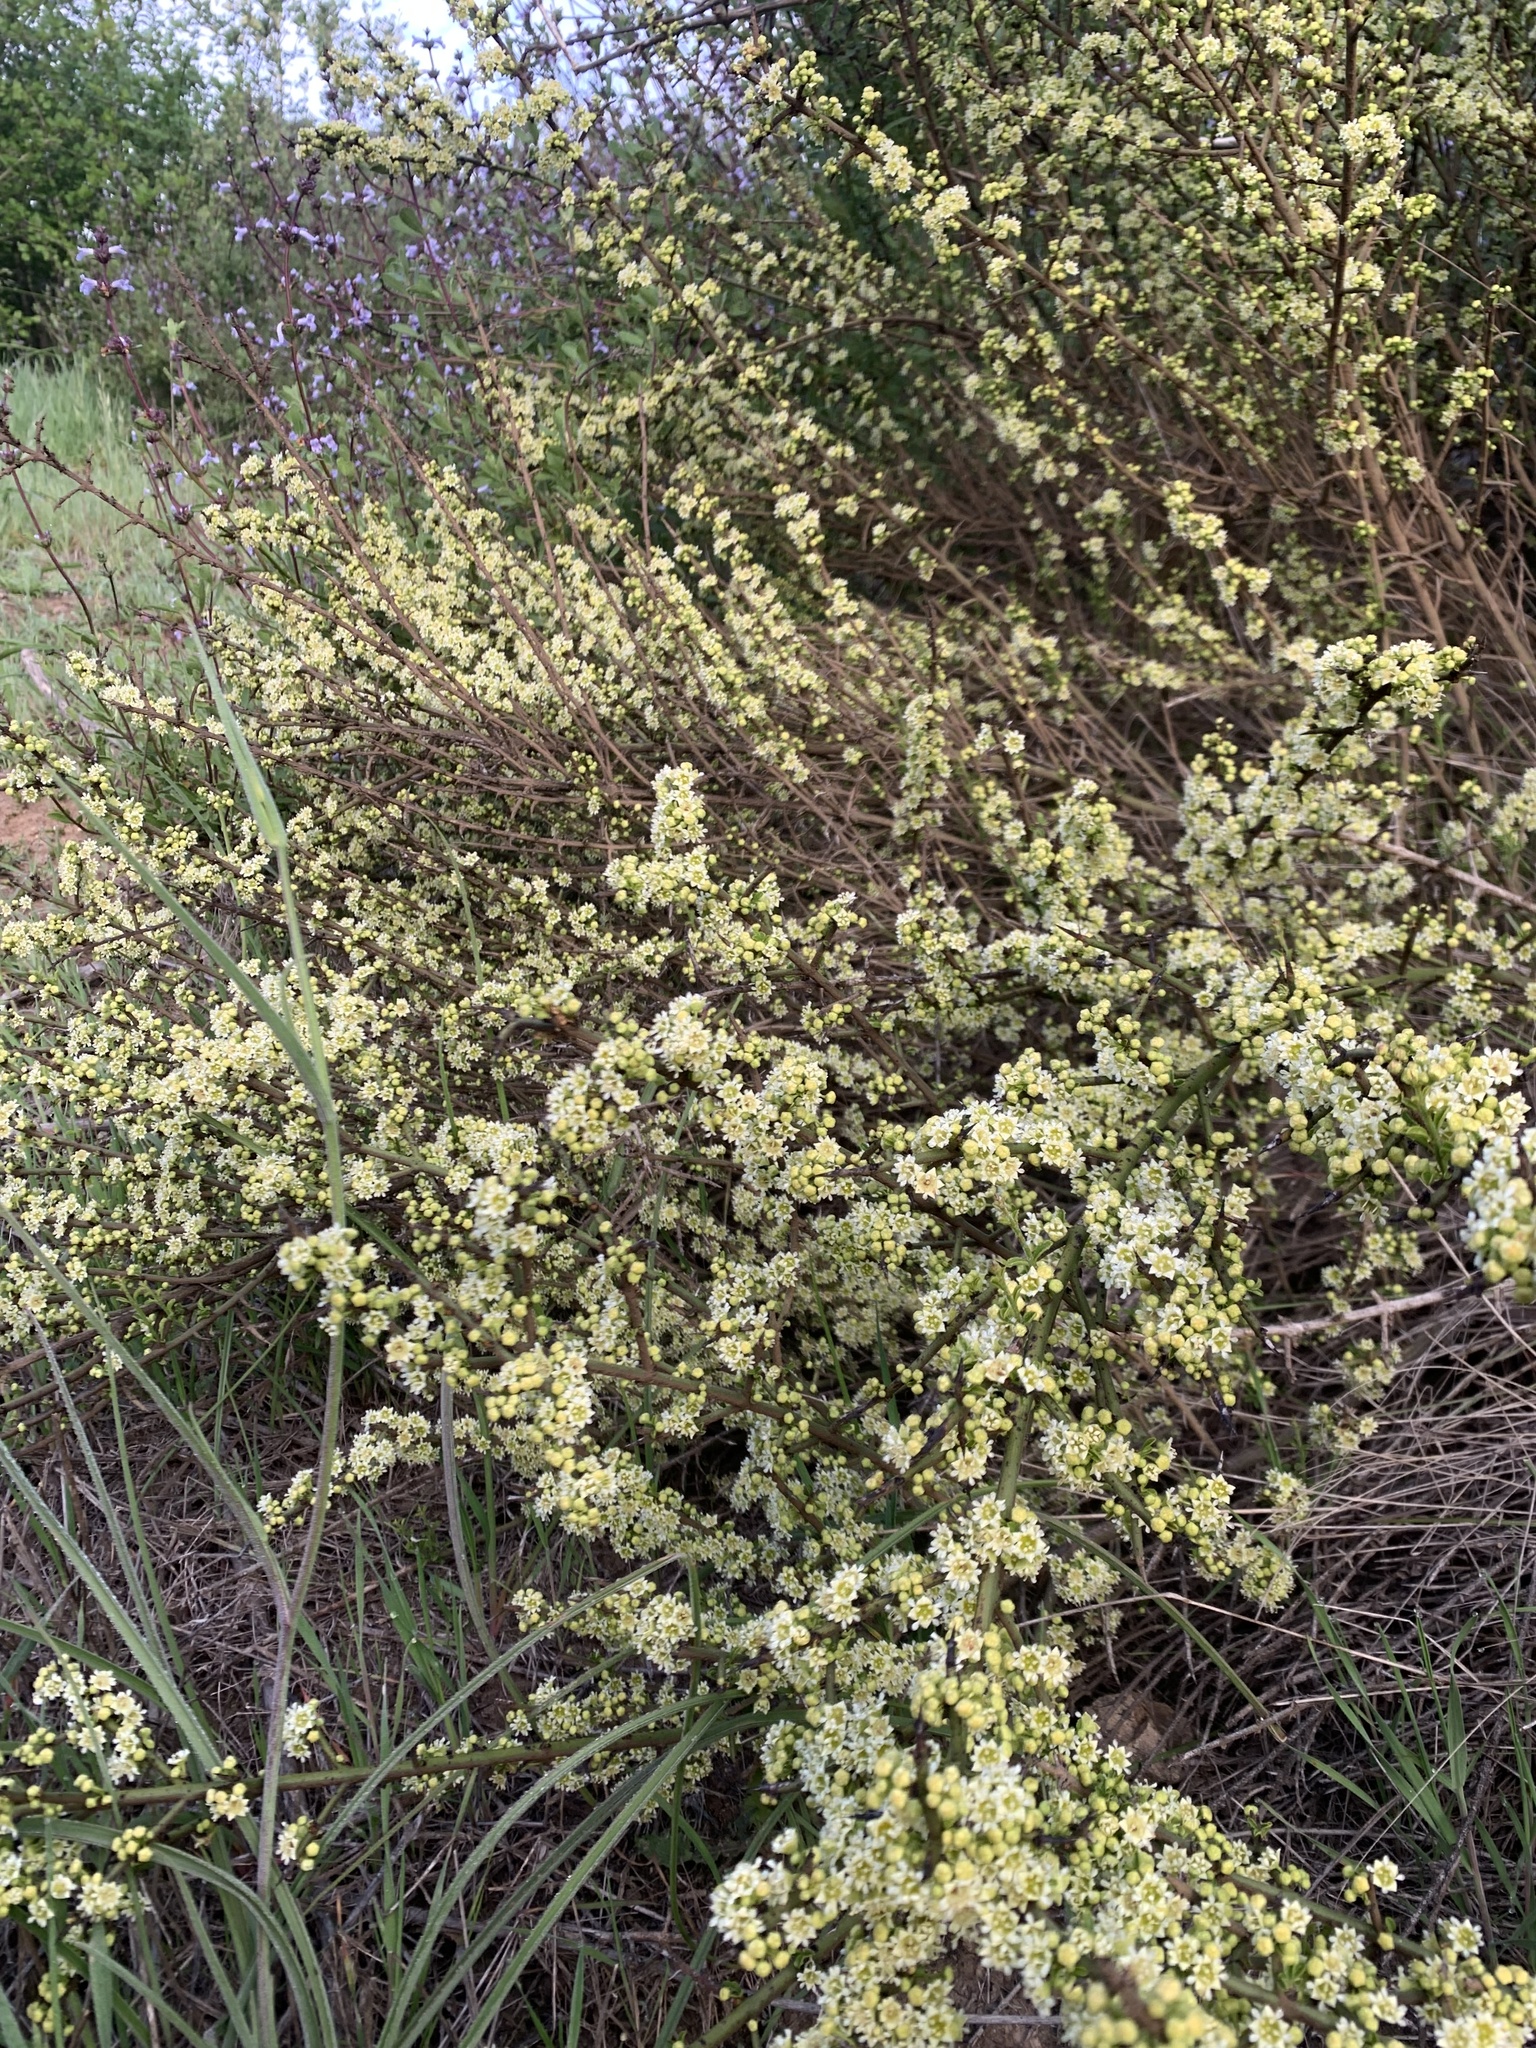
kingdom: Plantae
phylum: Tracheophyta
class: Magnoliopsida
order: Rosales
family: Rhamnaceae
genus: Adolphia
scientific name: Adolphia californica
